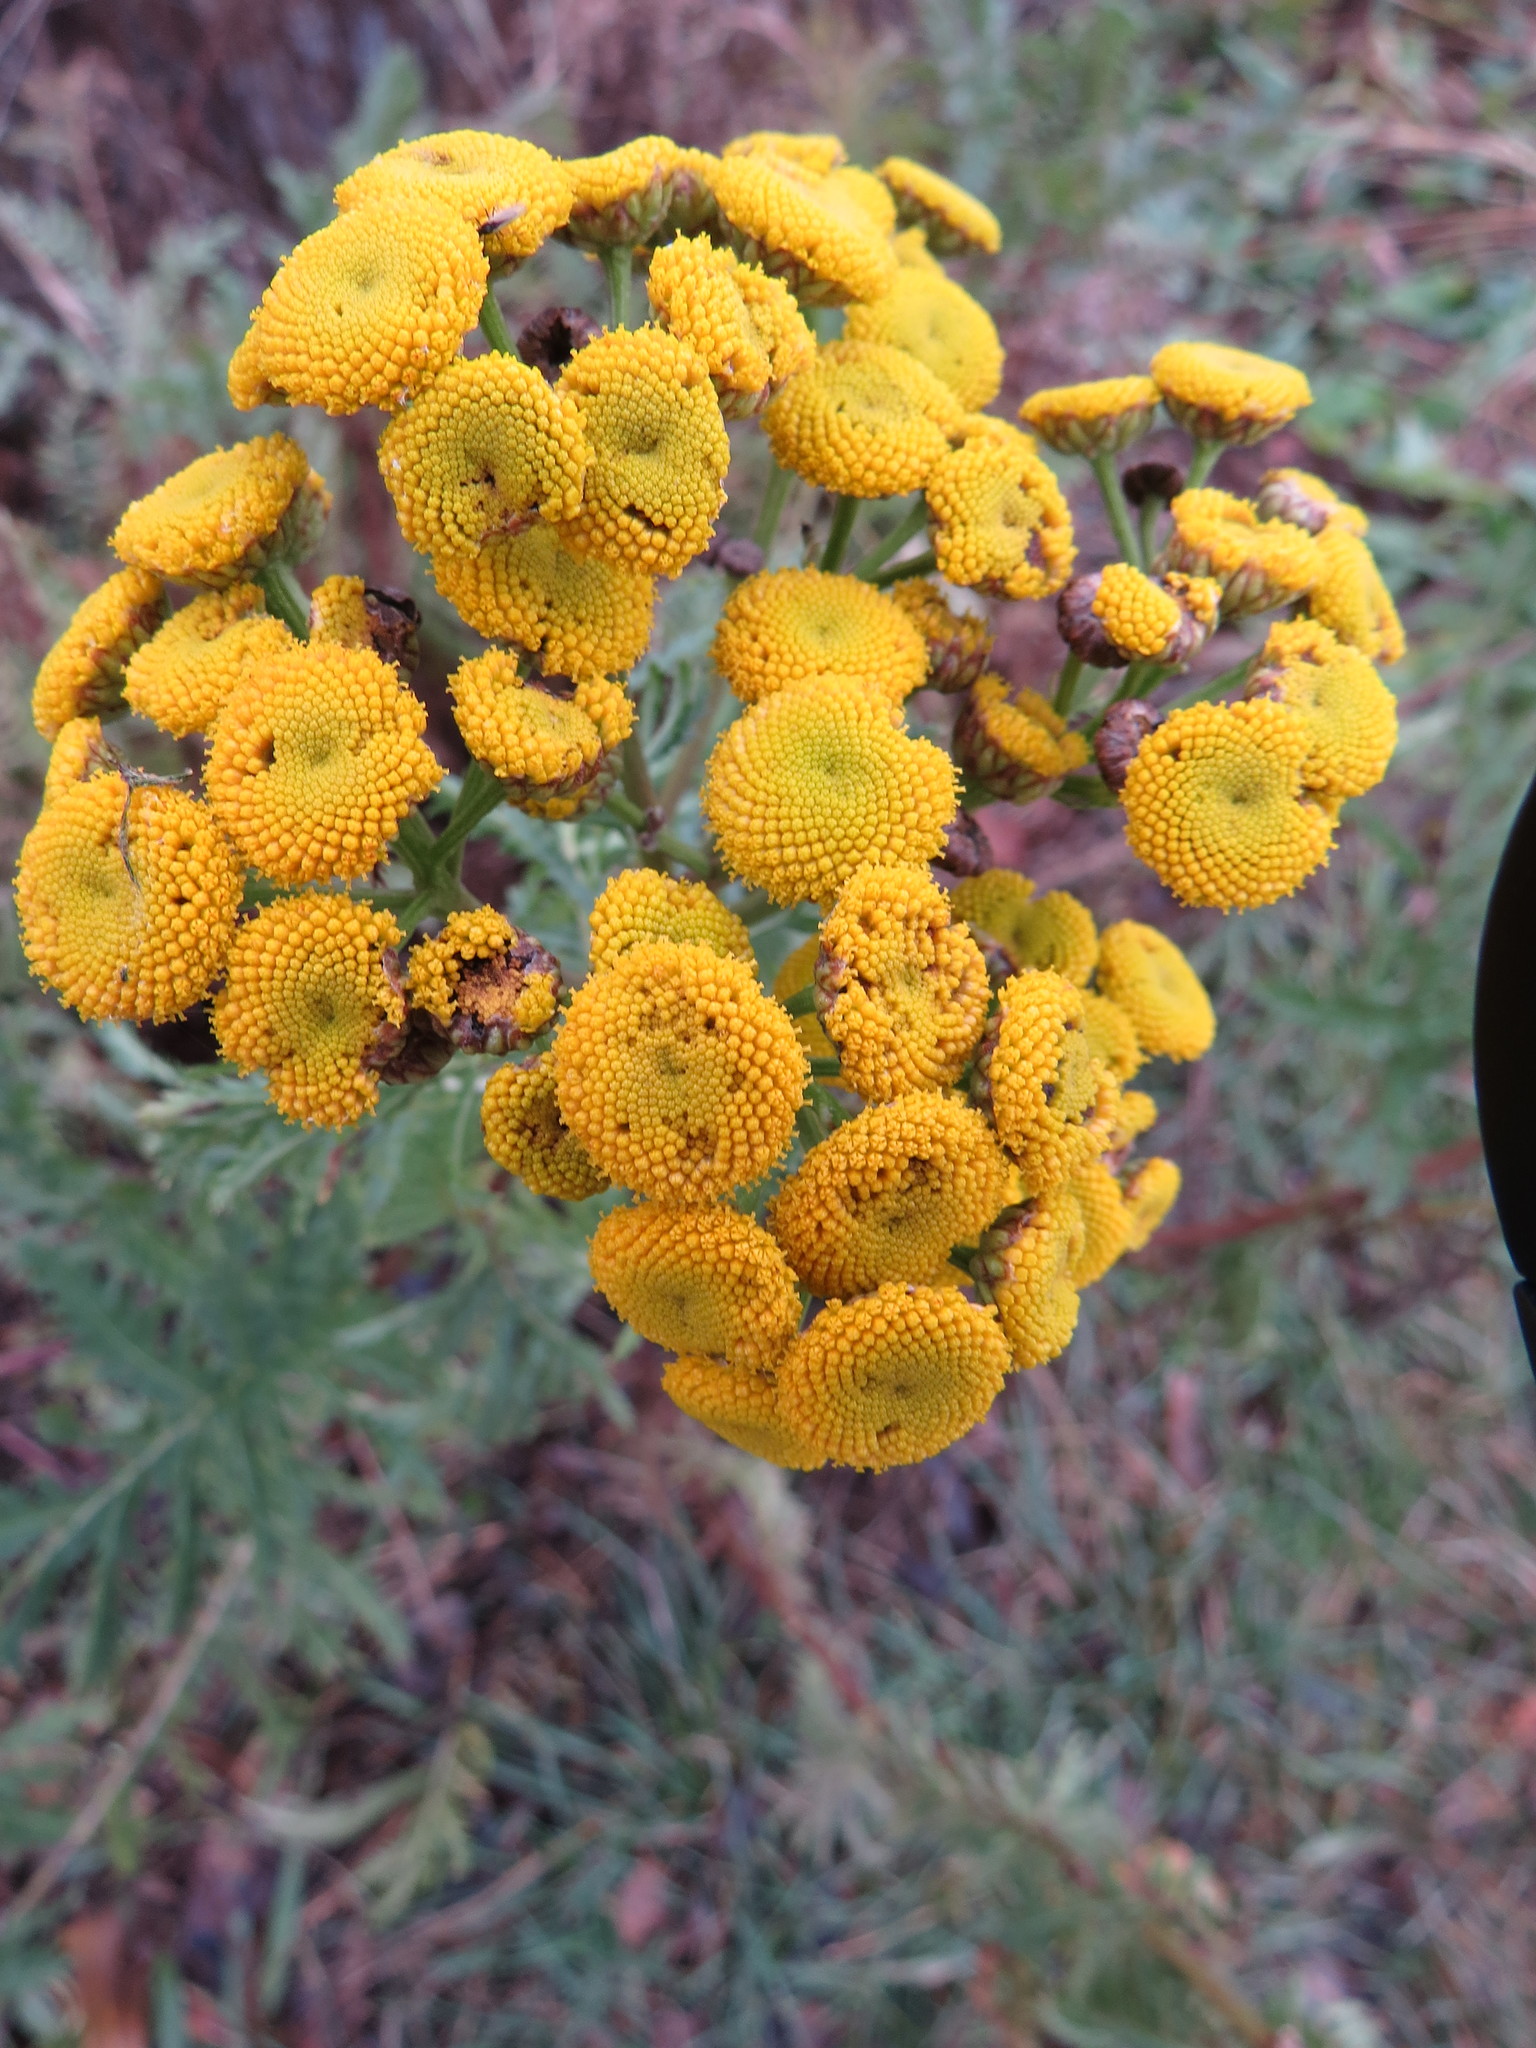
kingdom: Plantae
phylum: Tracheophyta
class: Magnoliopsida
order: Asterales
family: Asteraceae
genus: Tanacetum
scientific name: Tanacetum vulgare
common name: Common tansy
